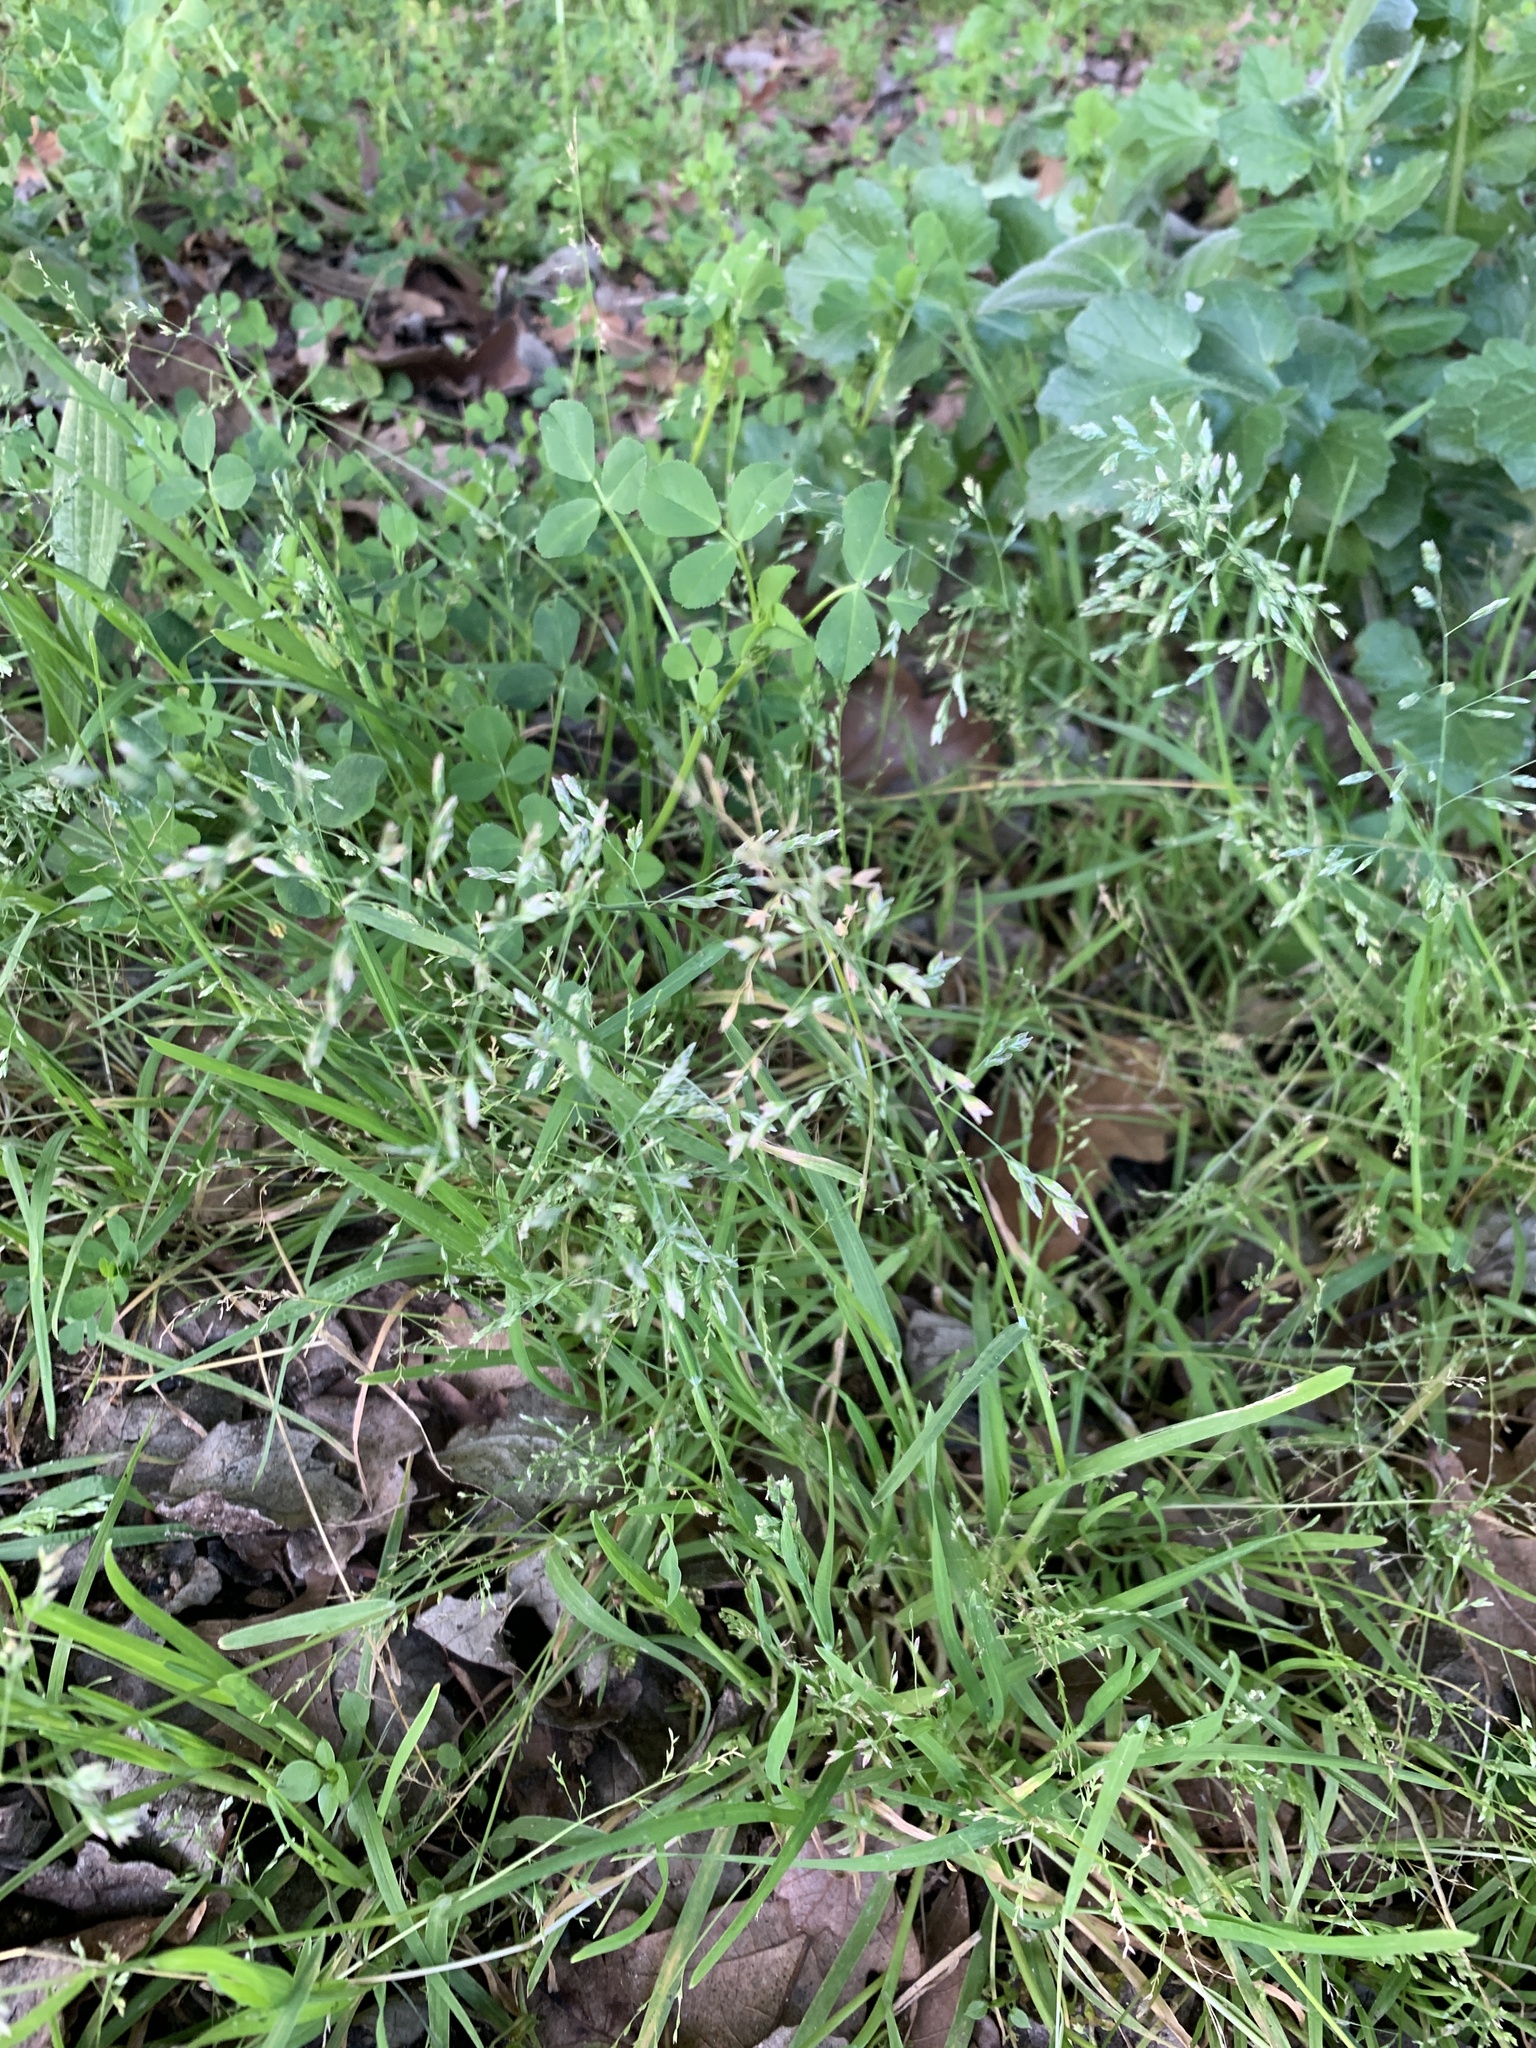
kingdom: Plantae
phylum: Tracheophyta
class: Liliopsida
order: Poales
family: Poaceae
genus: Poa
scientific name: Poa annua
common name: Annual bluegrass
